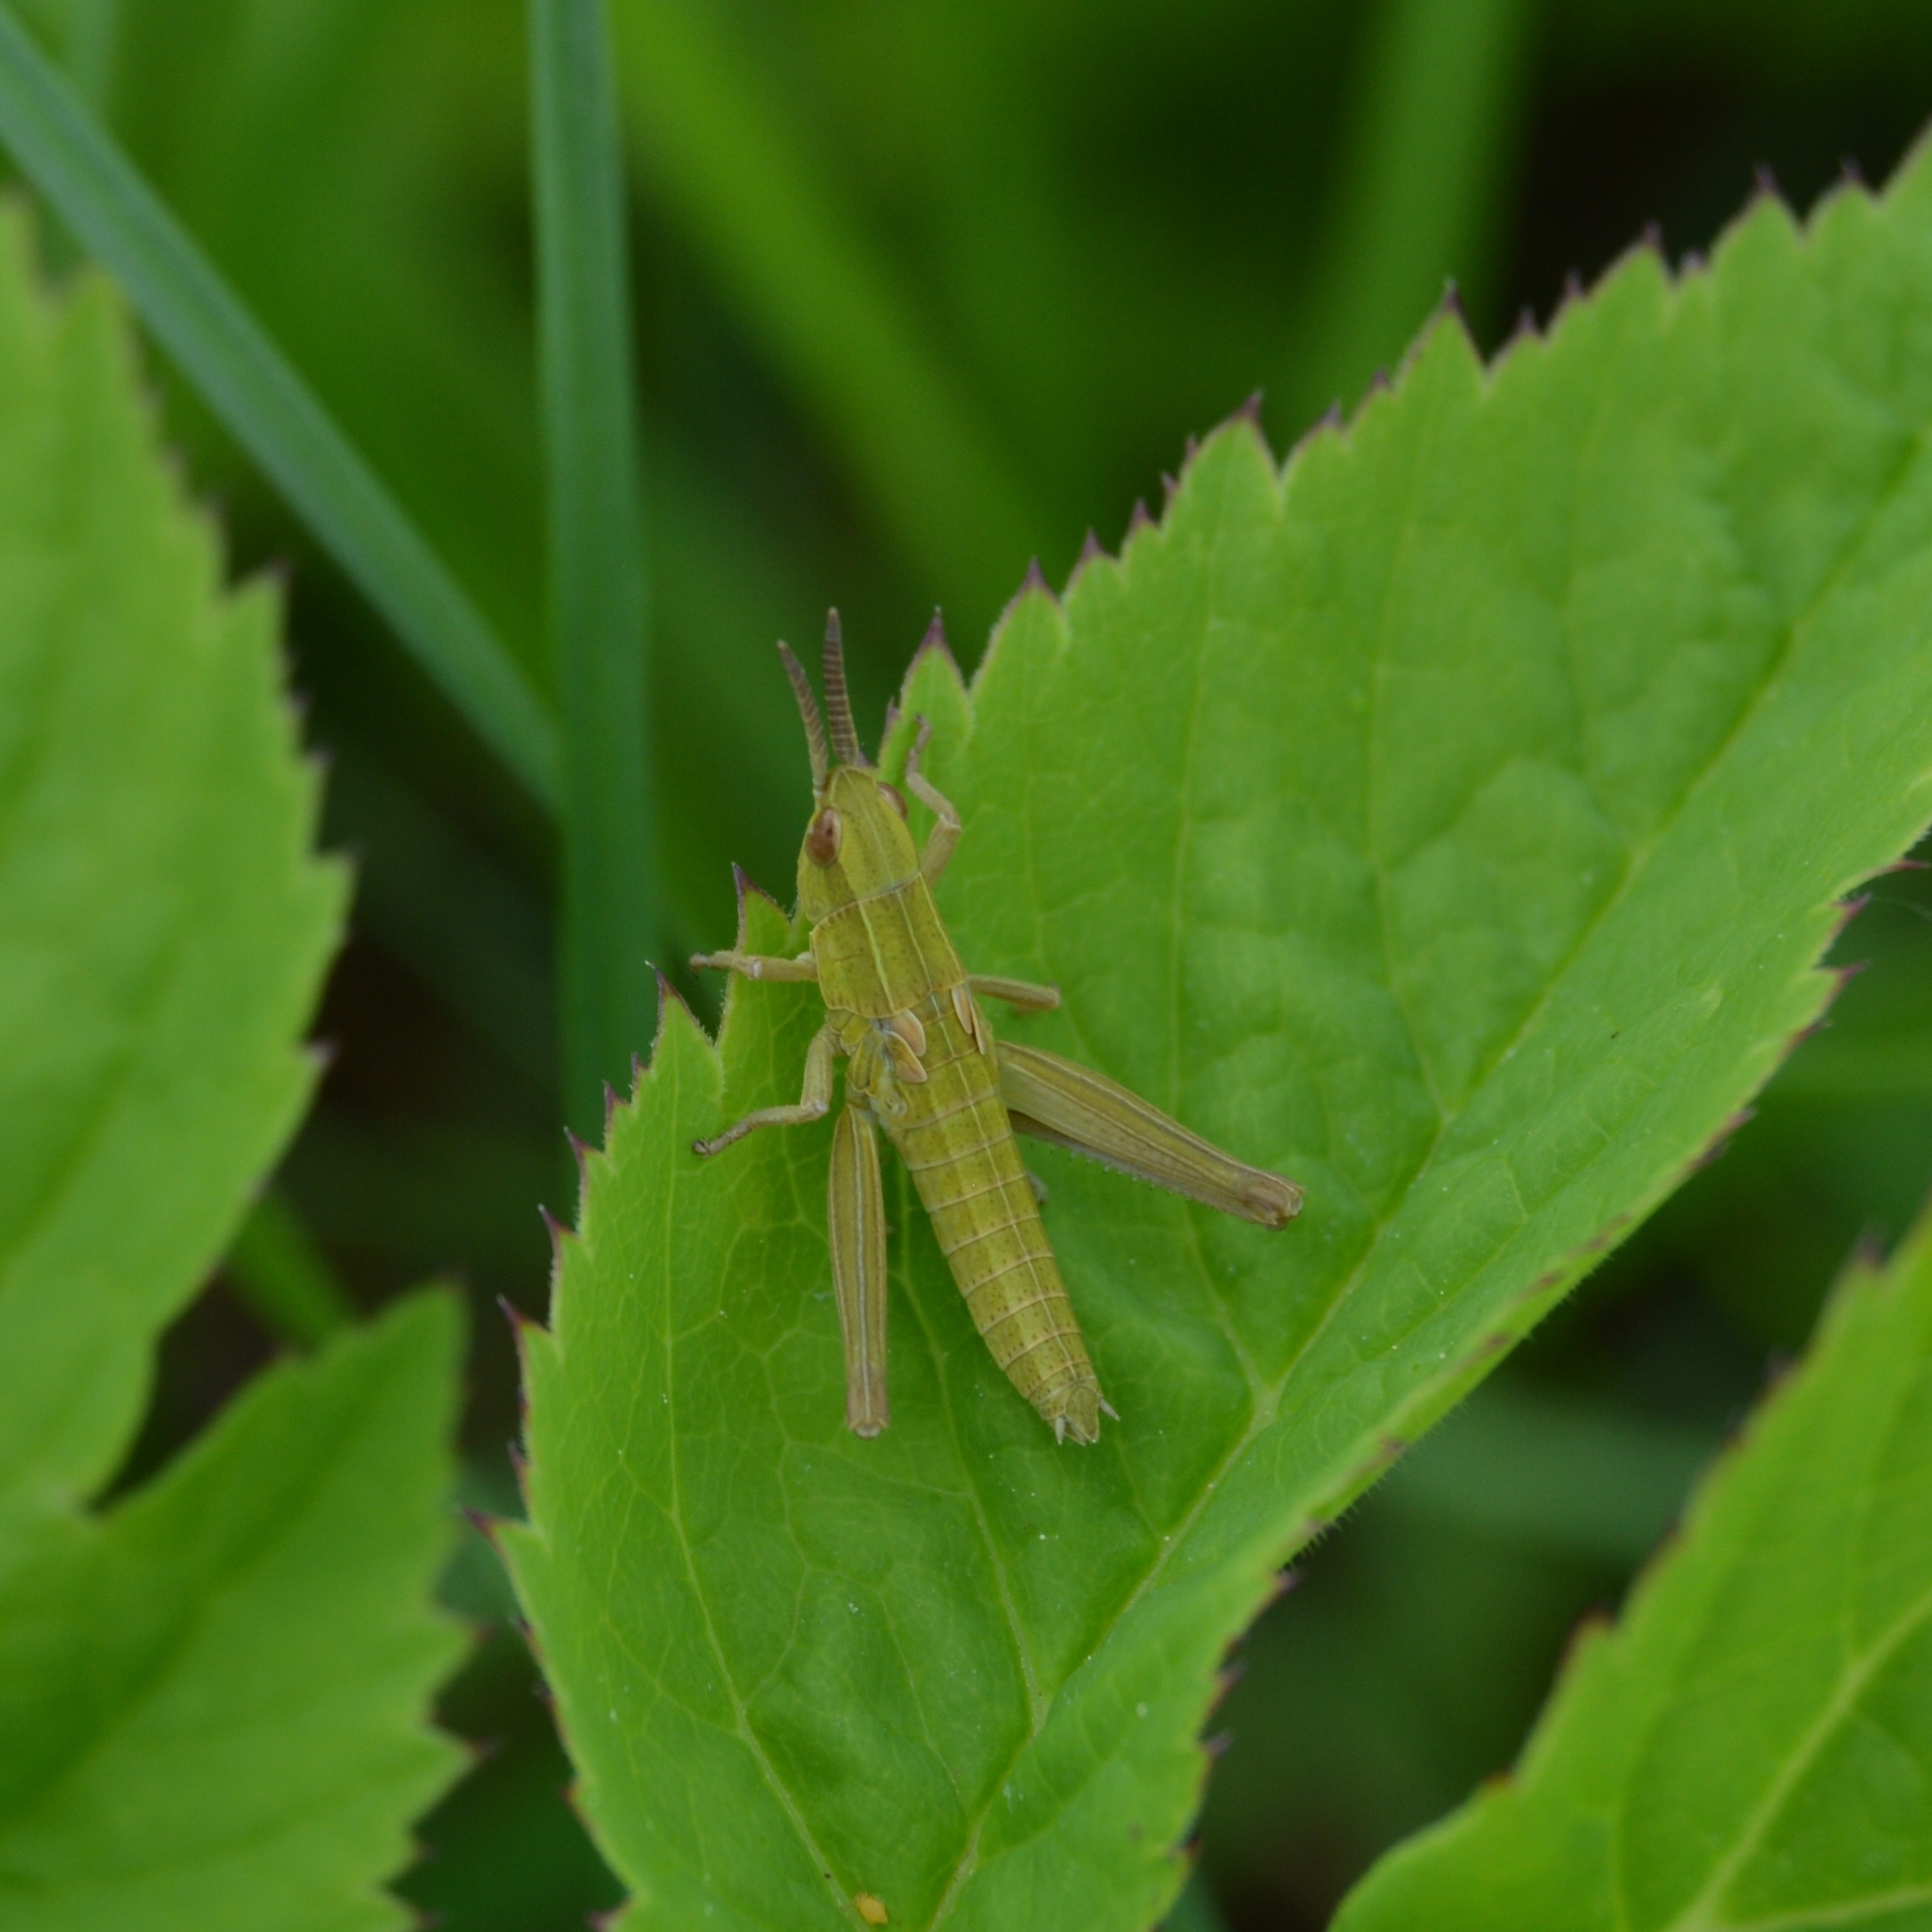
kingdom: Animalia
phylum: Arthropoda
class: Insecta
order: Orthoptera
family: Acrididae
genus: Euthystira
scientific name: Euthystira brachyptera
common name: Small gold grasshopper
